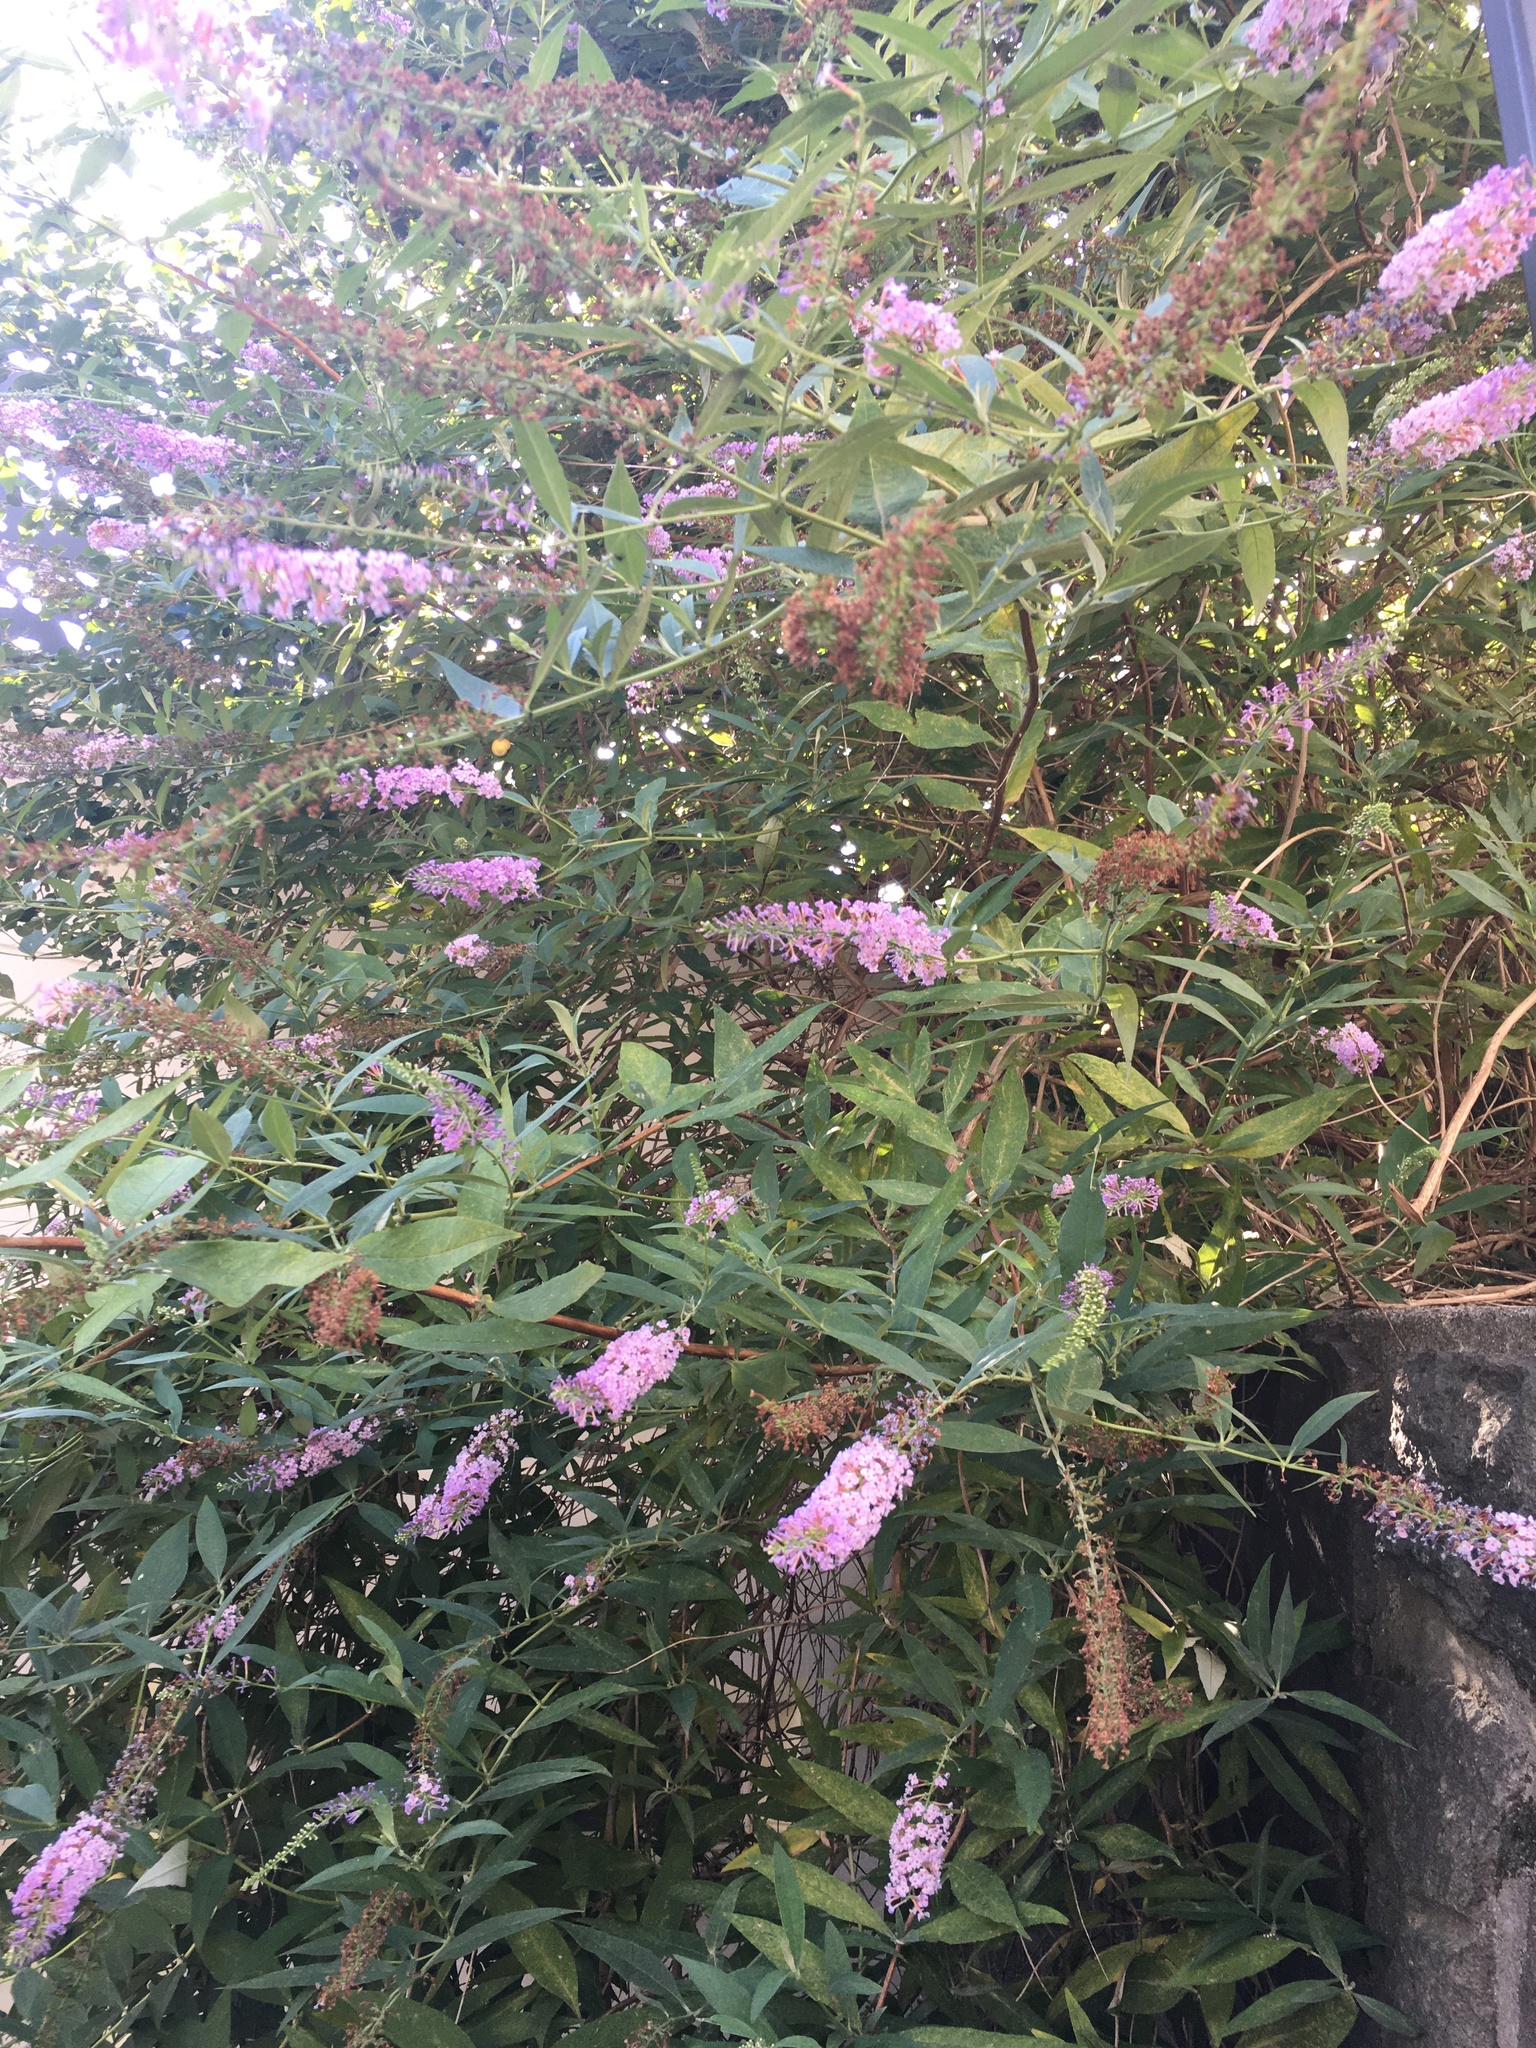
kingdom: Plantae
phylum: Tracheophyta
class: Magnoliopsida
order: Lamiales
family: Scrophulariaceae
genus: Buddleja
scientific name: Buddleja davidii
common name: Butterfly-bush
